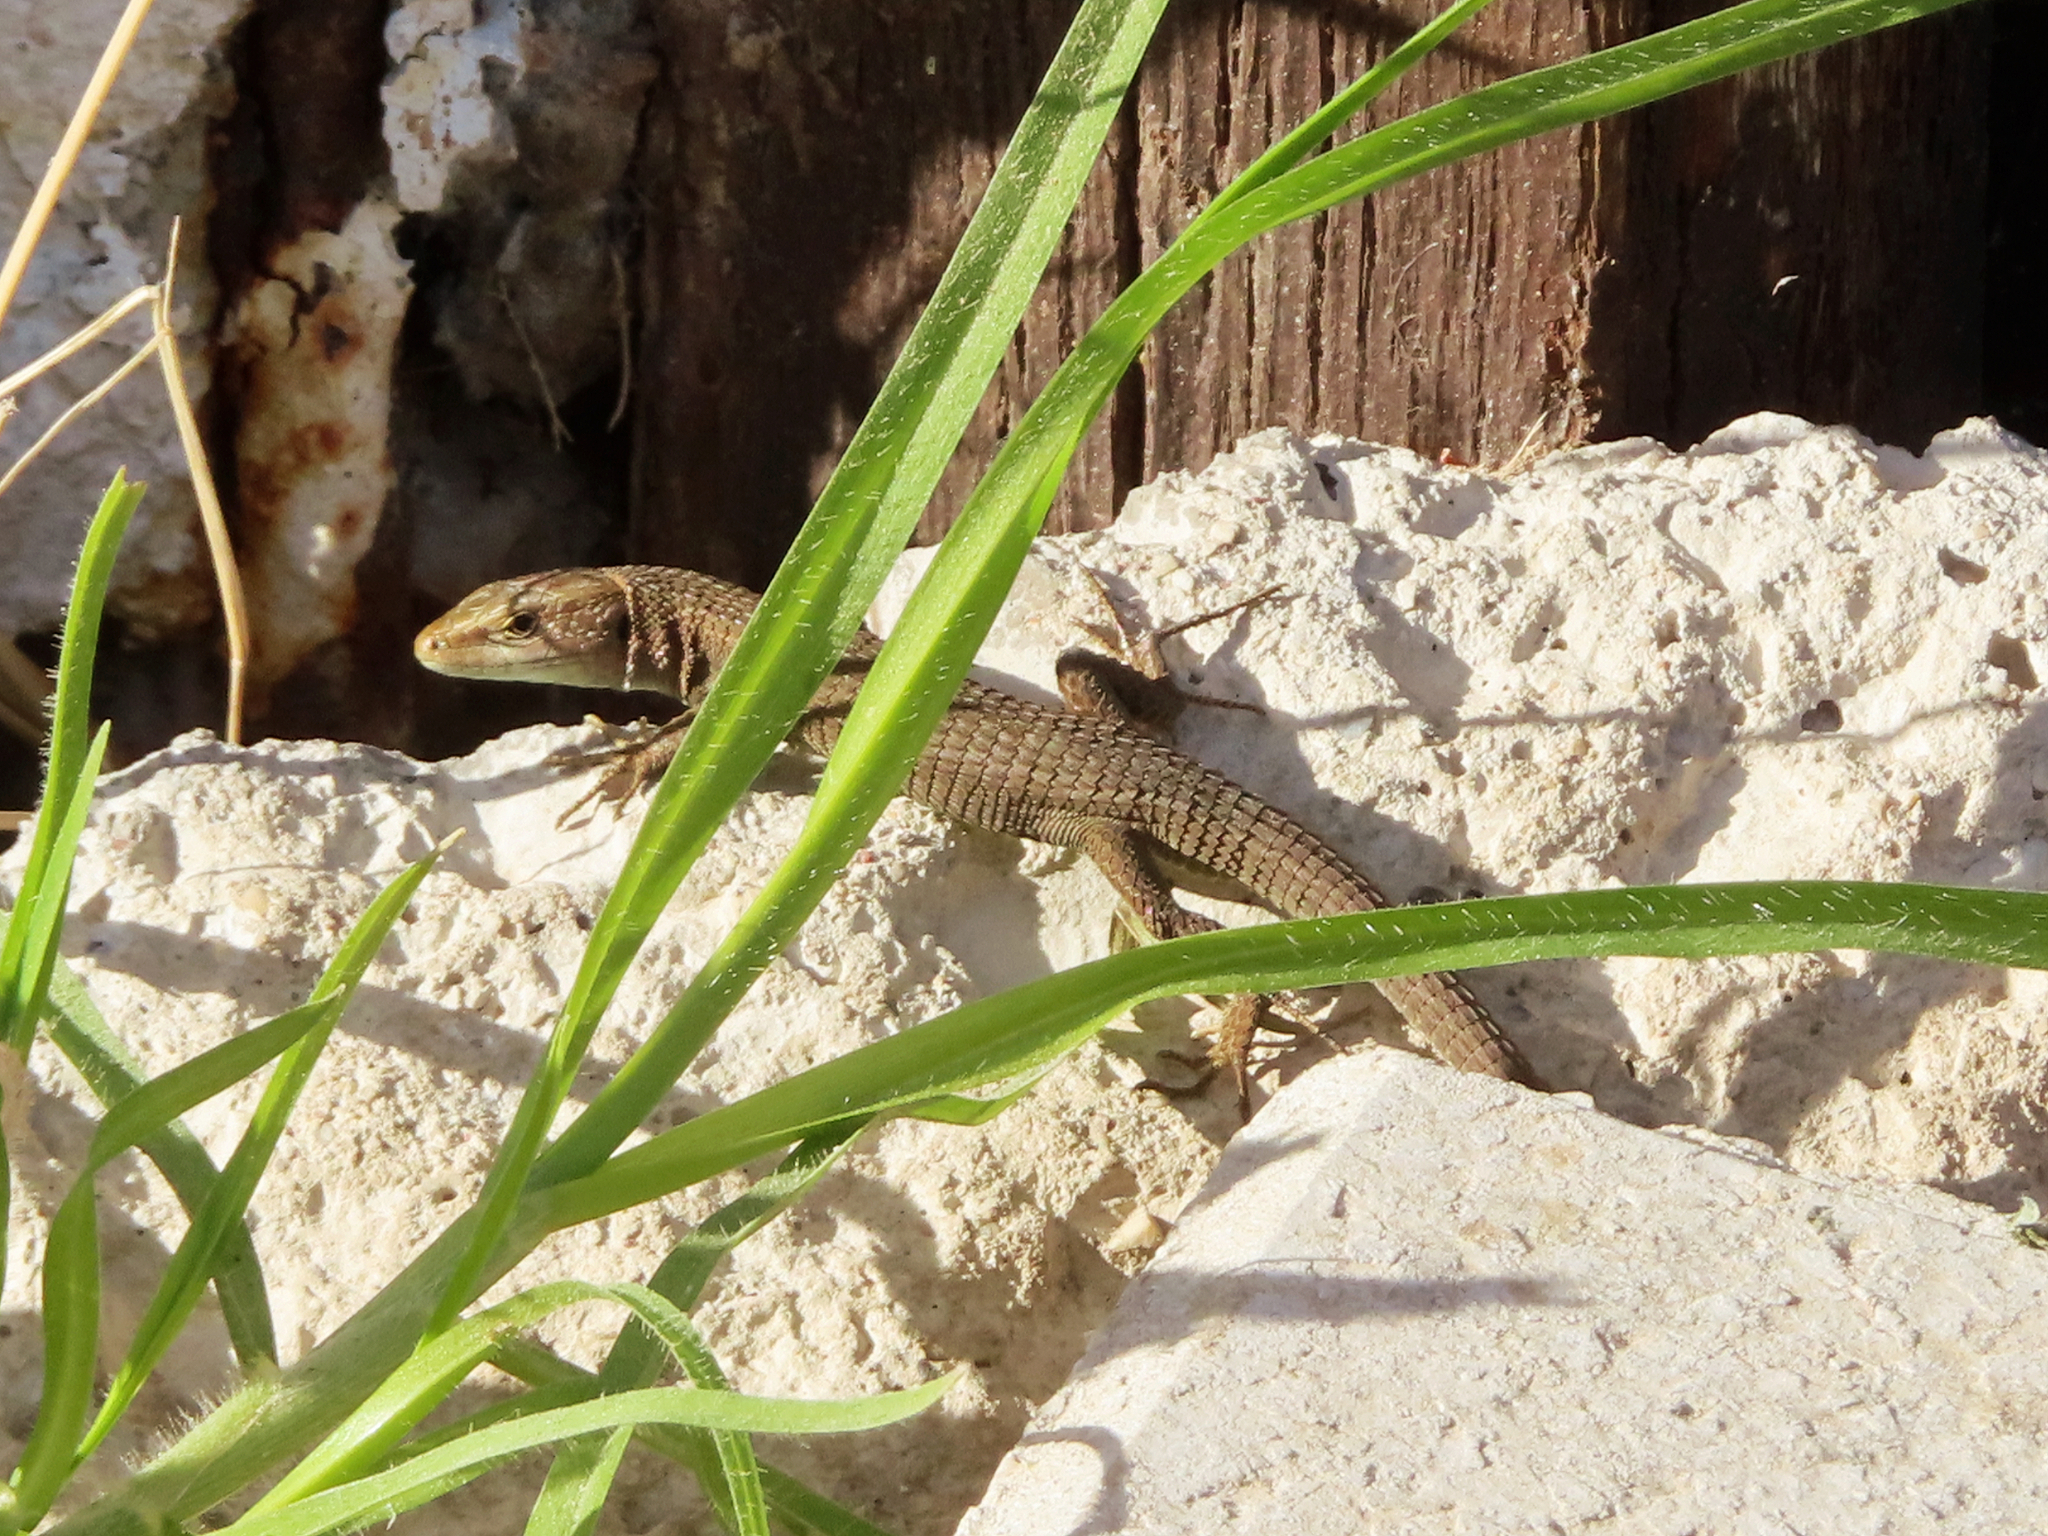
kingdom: Animalia
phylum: Chordata
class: Squamata
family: Lacertidae
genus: Algyroides
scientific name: Algyroides moreoticus
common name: Greek algyroides
